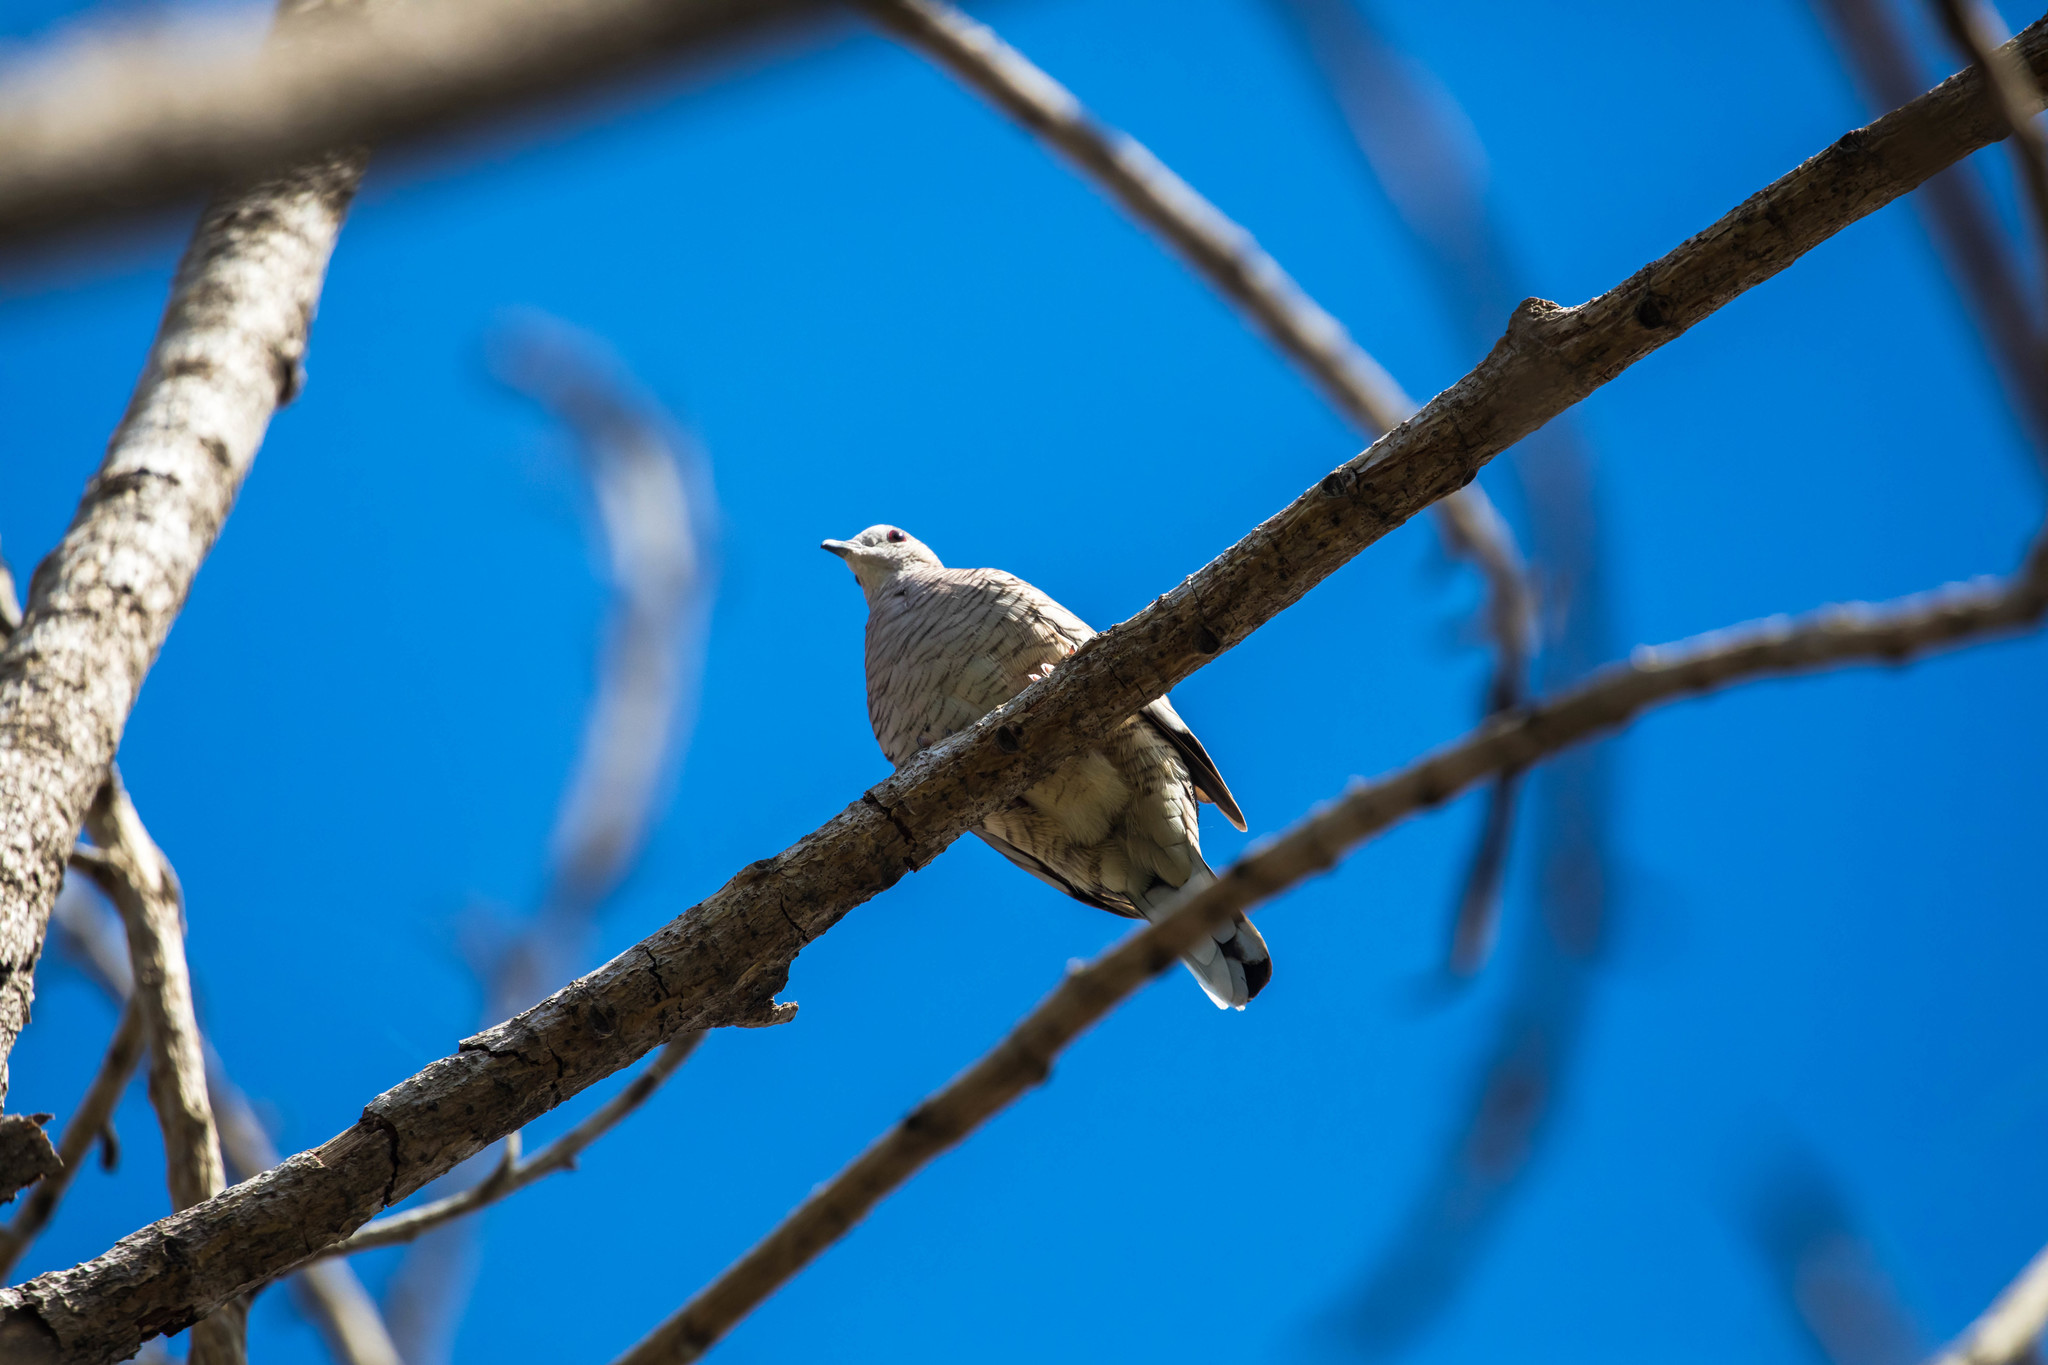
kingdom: Animalia
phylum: Chordata
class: Aves
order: Columbiformes
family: Columbidae
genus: Columbina
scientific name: Columbina inca
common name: Inca dove
